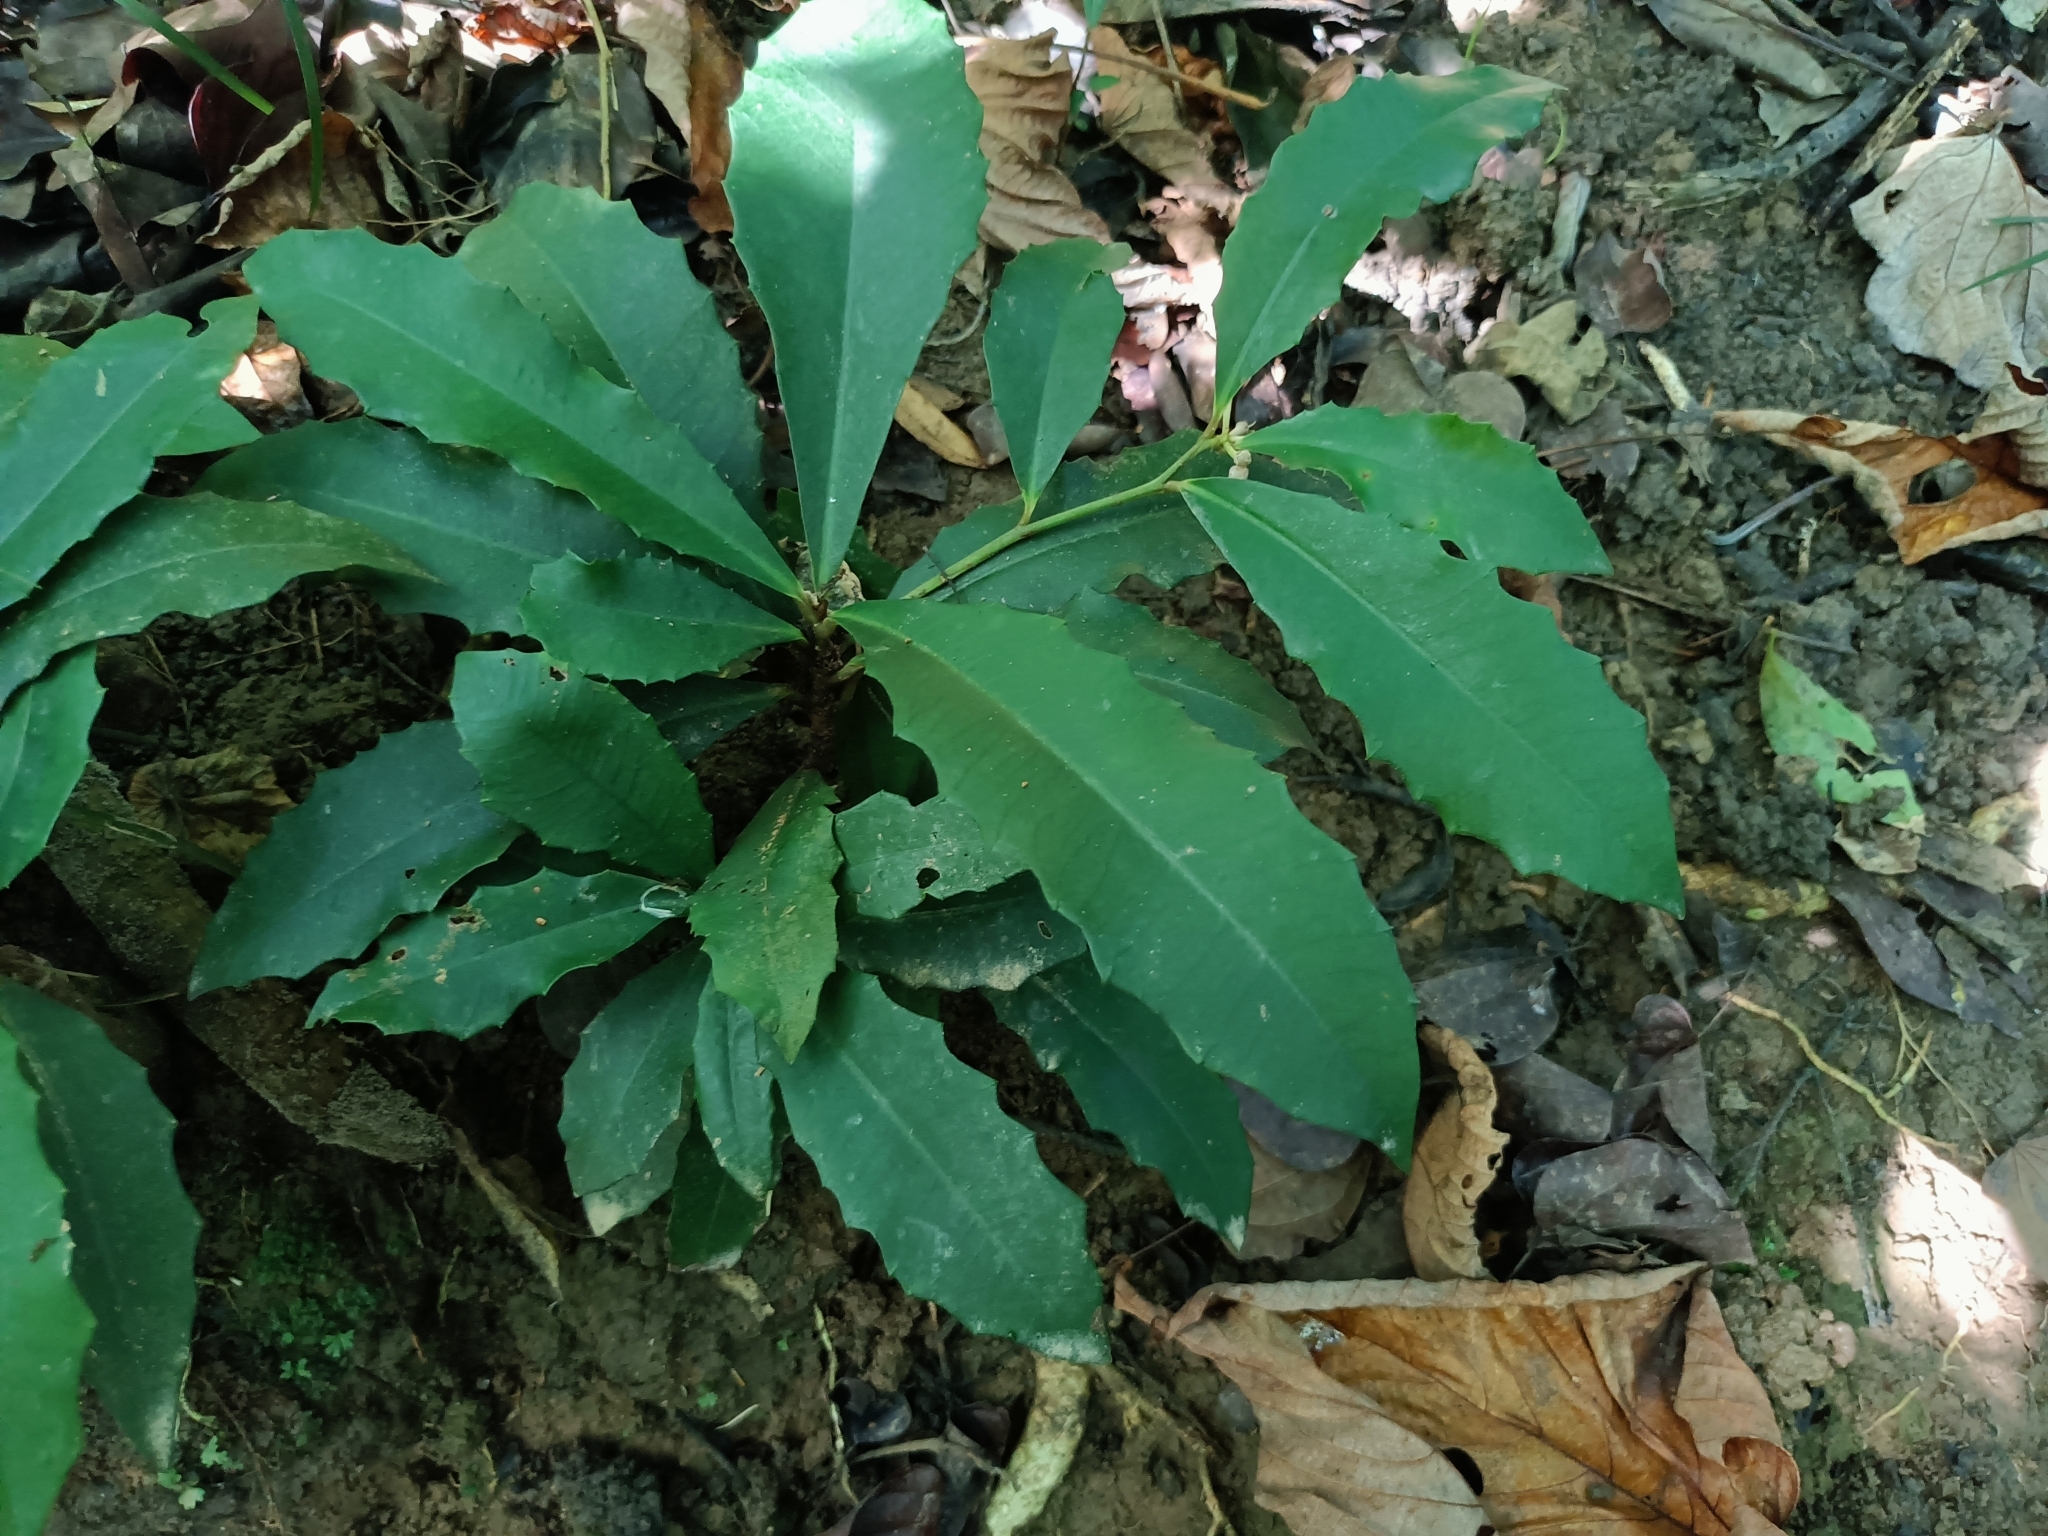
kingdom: Plantae
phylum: Tracheophyta
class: Magnoliopsida
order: Ericales
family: Primulaceae
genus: Ardisia
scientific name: Ardisia cornudentata
